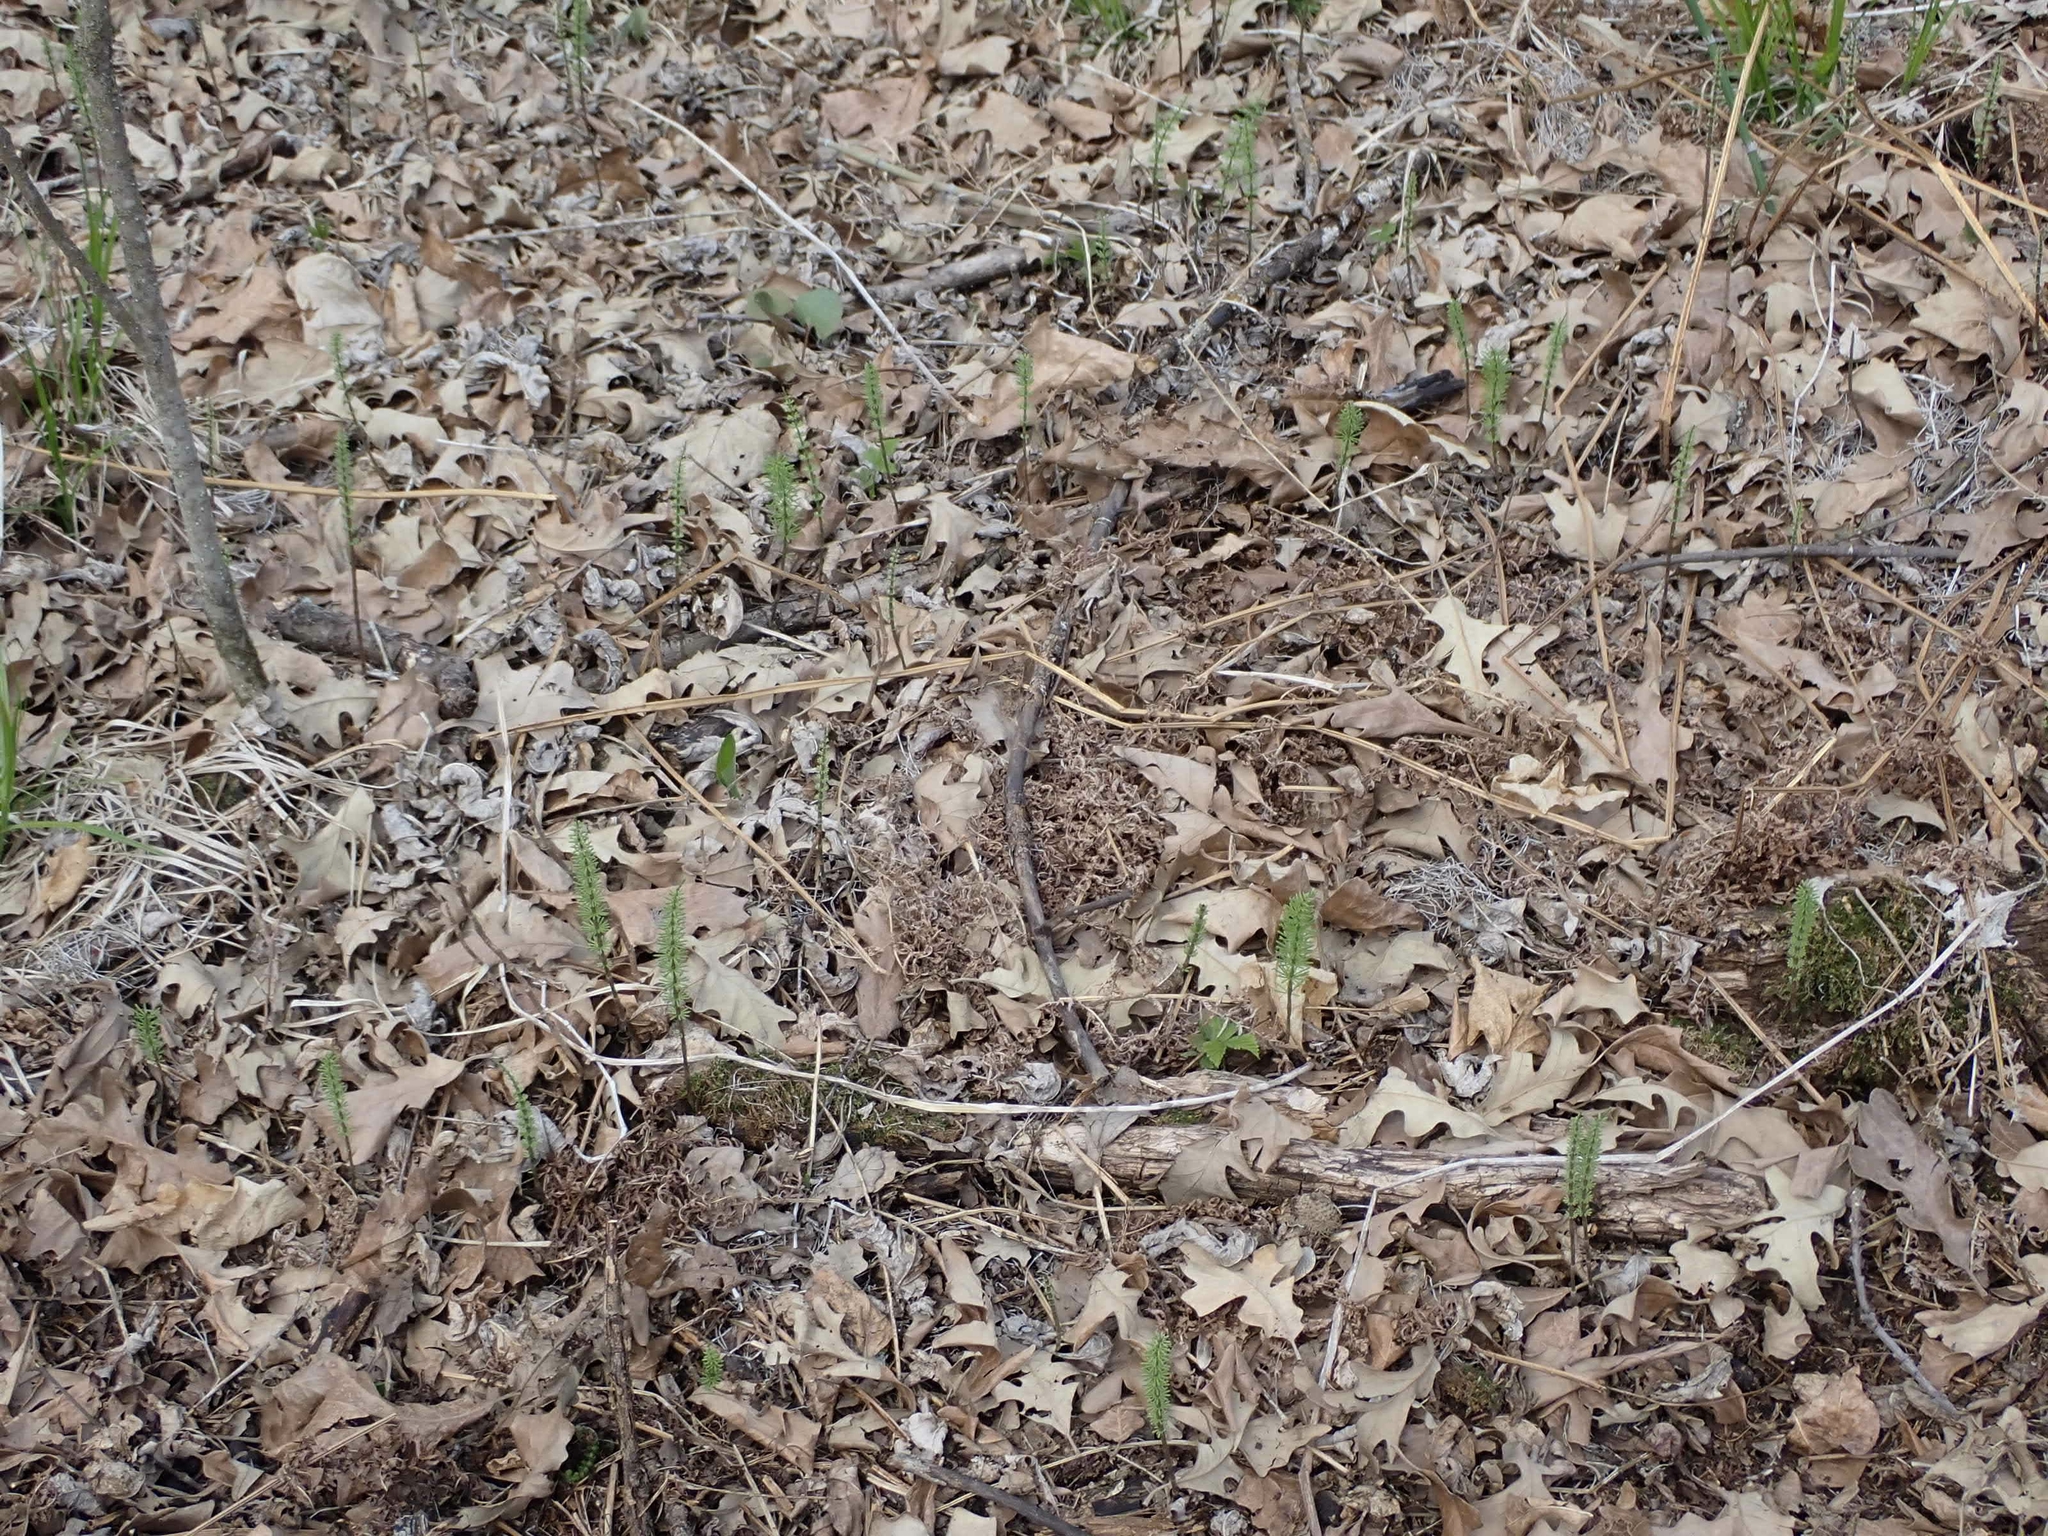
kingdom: Plantae
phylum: Tracheophyta
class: Polypodiopsida
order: Equisetales
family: Equisetaceae
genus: Equisetum
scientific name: Equisetum arvense
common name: Field horsetail
